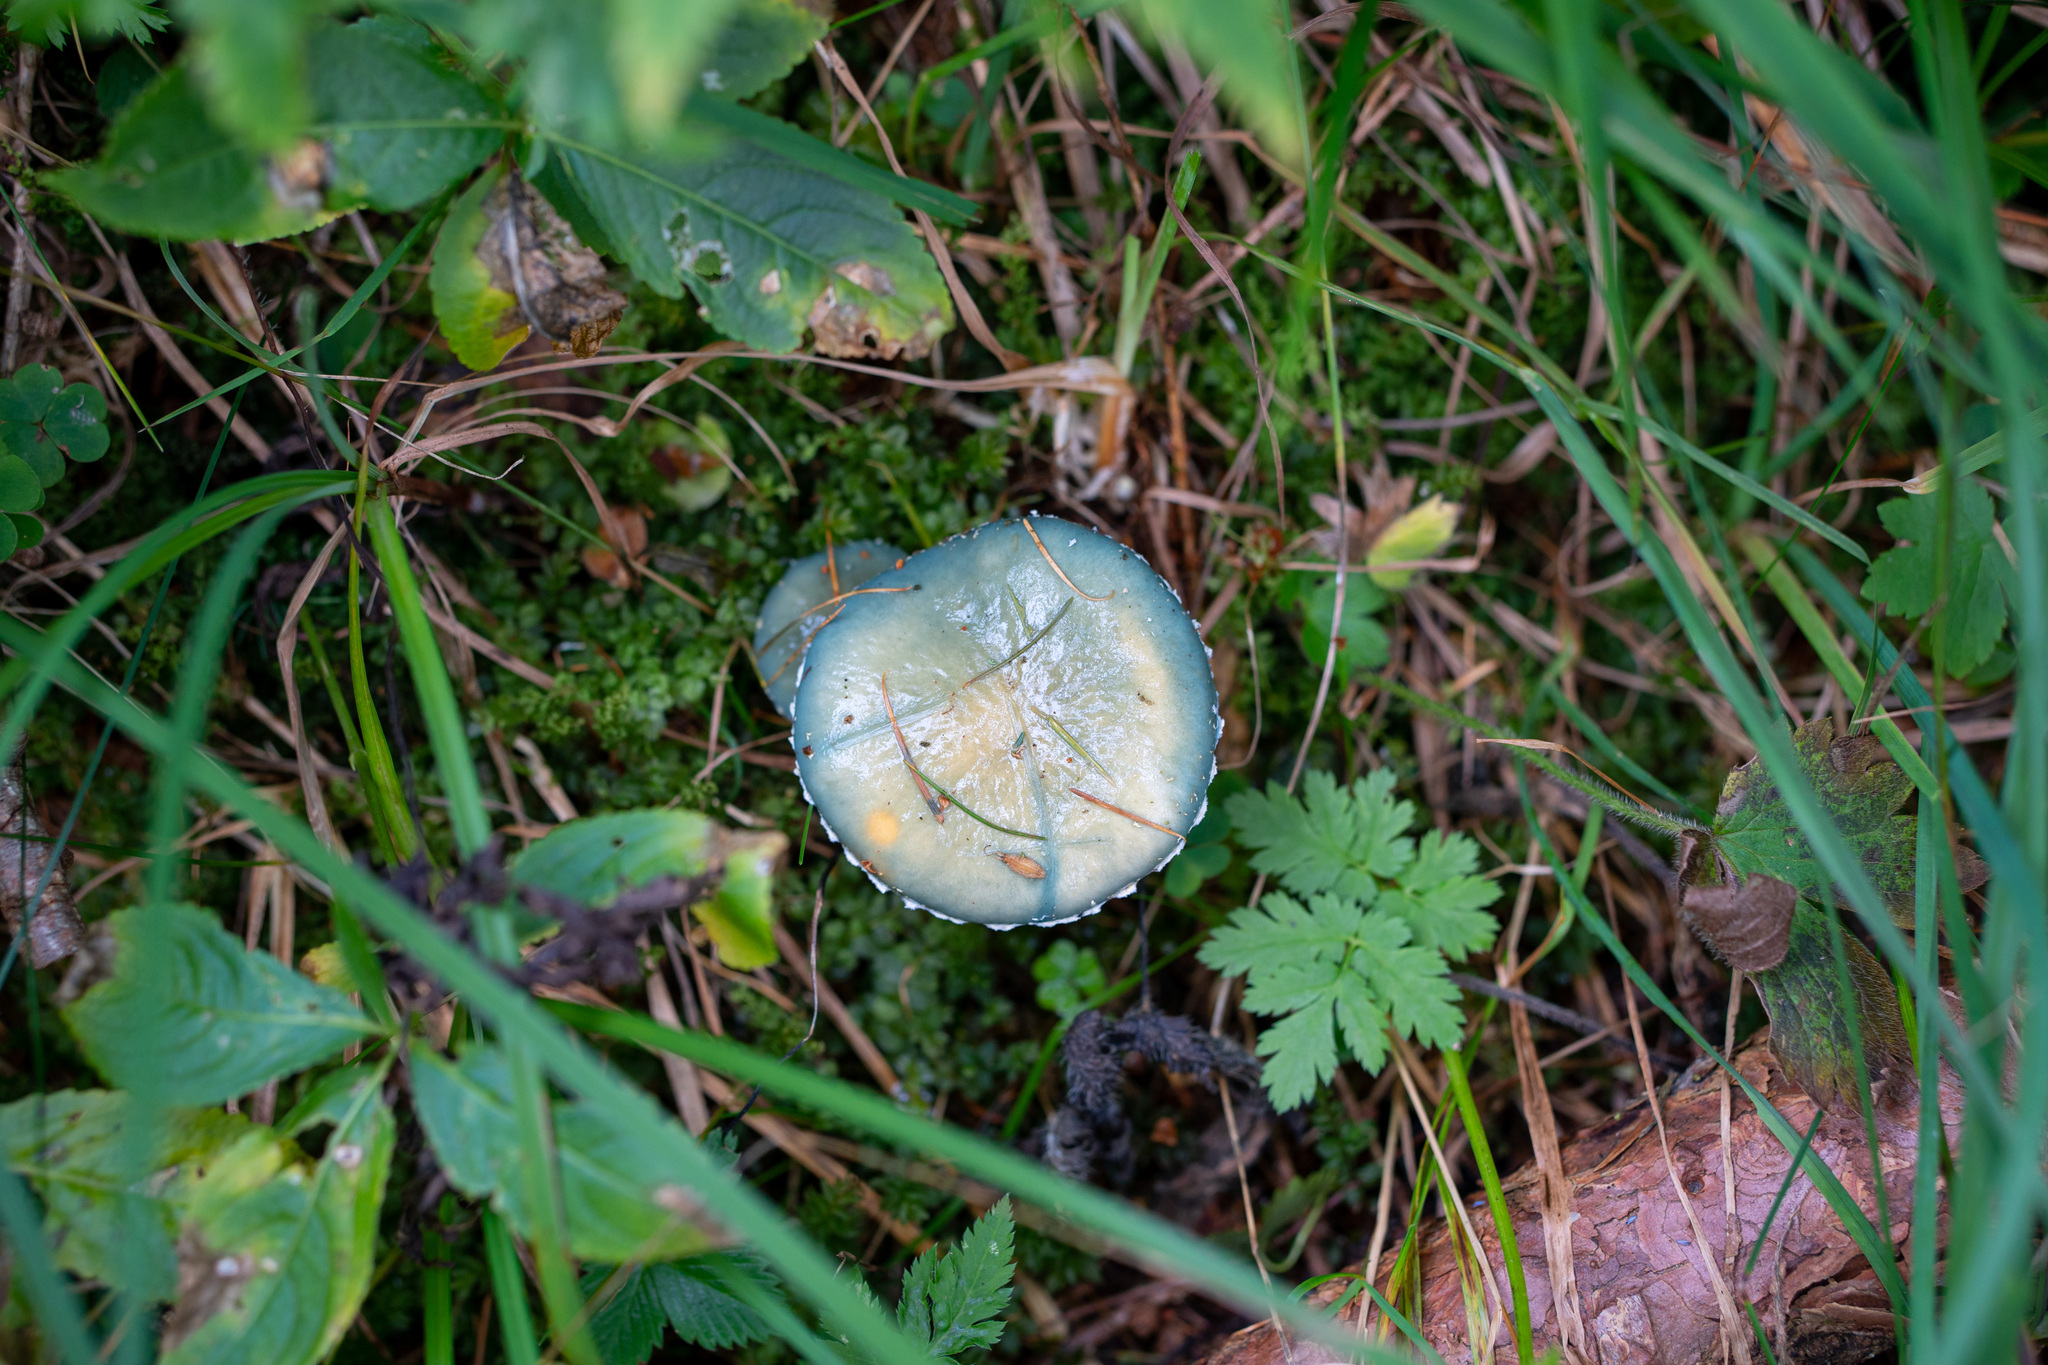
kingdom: Fungi
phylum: Basidiomycota
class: Agaricomycetes
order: Agaricales
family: Strophariaceae
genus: Stropharia
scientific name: Stropharia aeruginosa
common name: Verdigris roundhead
